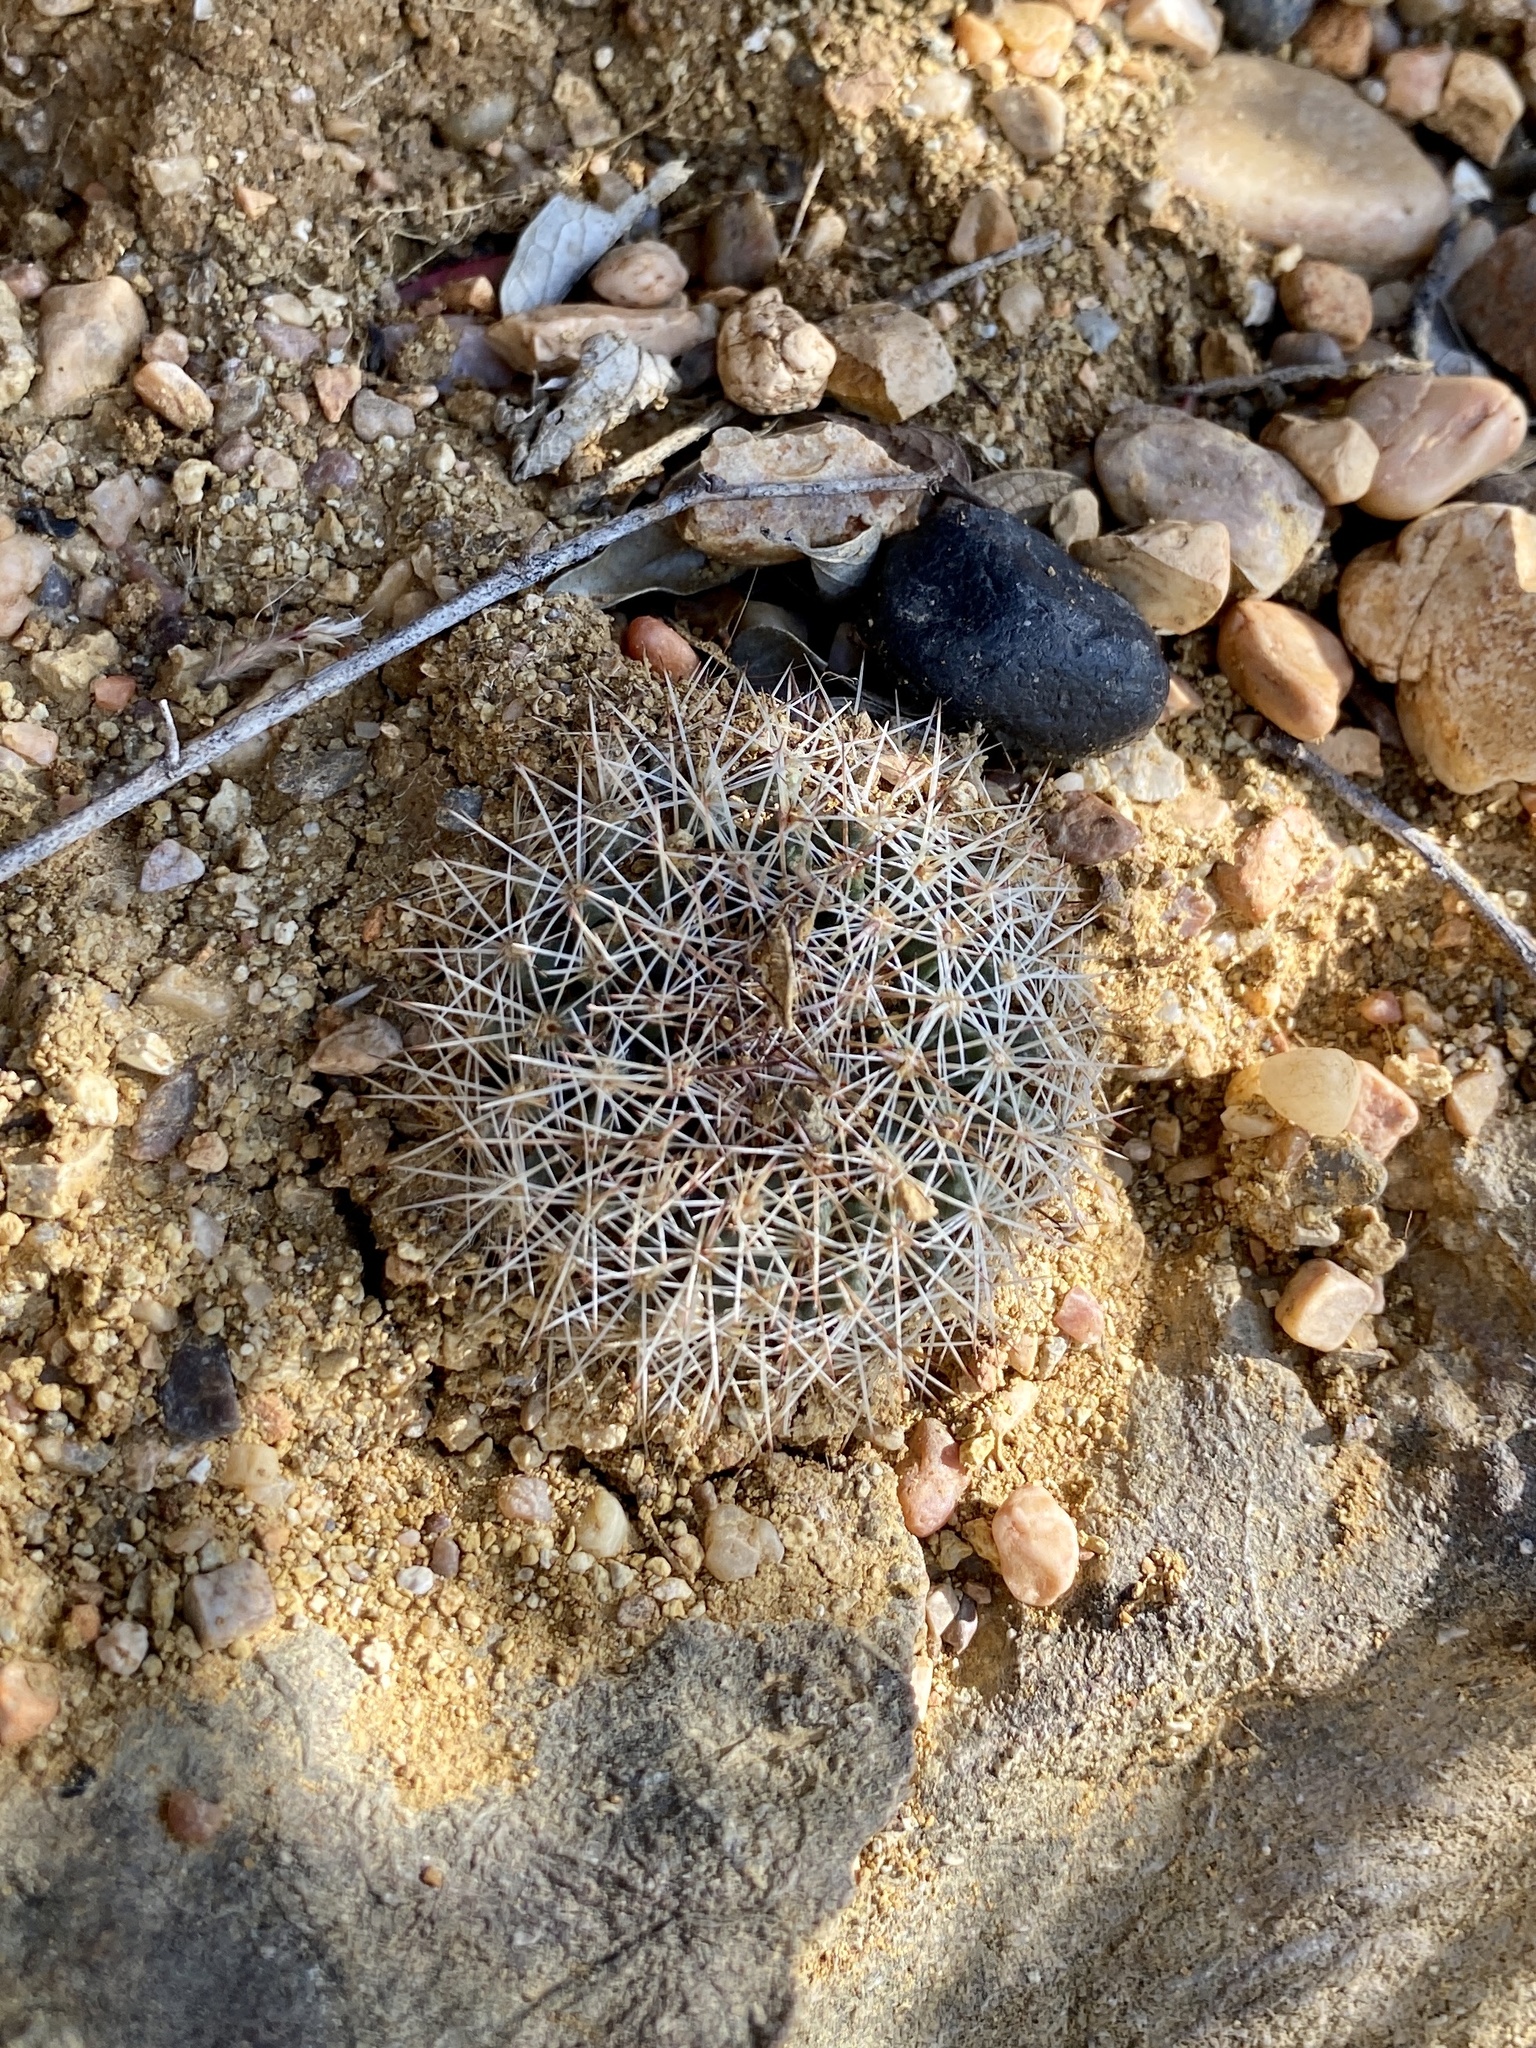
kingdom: Plantae
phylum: Tracheophyta
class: Magnoliopsida
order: Caryophyllales
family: Cactaceae
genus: Mammillaria
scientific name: Mammillaria heyderi
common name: Little nipple cactus
